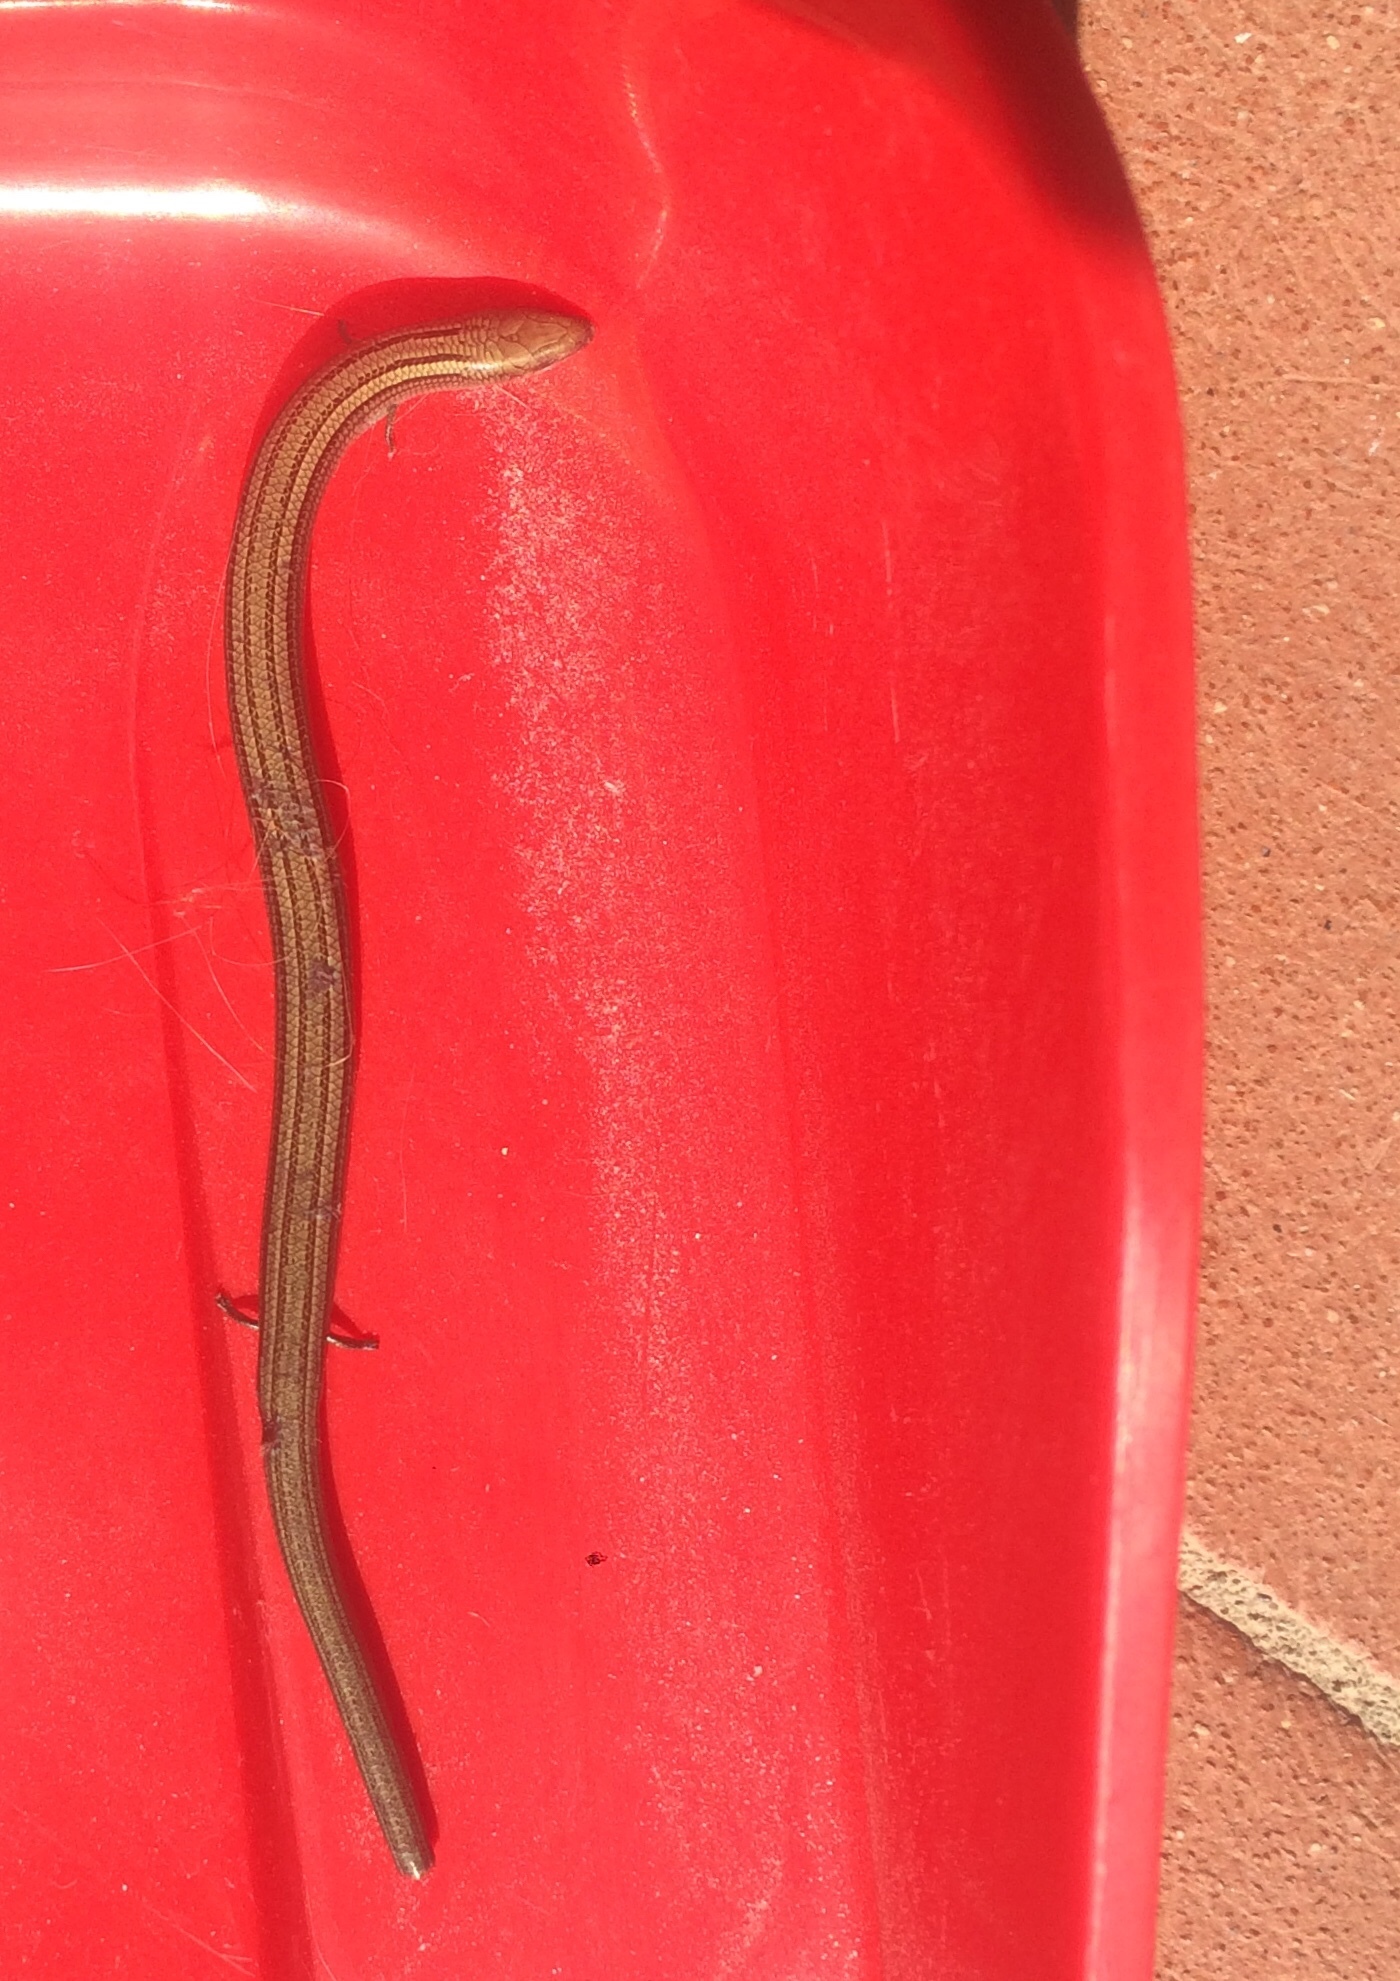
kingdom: Animalia
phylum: Chordata
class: Squamata
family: Scincidae
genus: Chalcides
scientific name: Chalcides chalcides
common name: Italian three-toed skink
